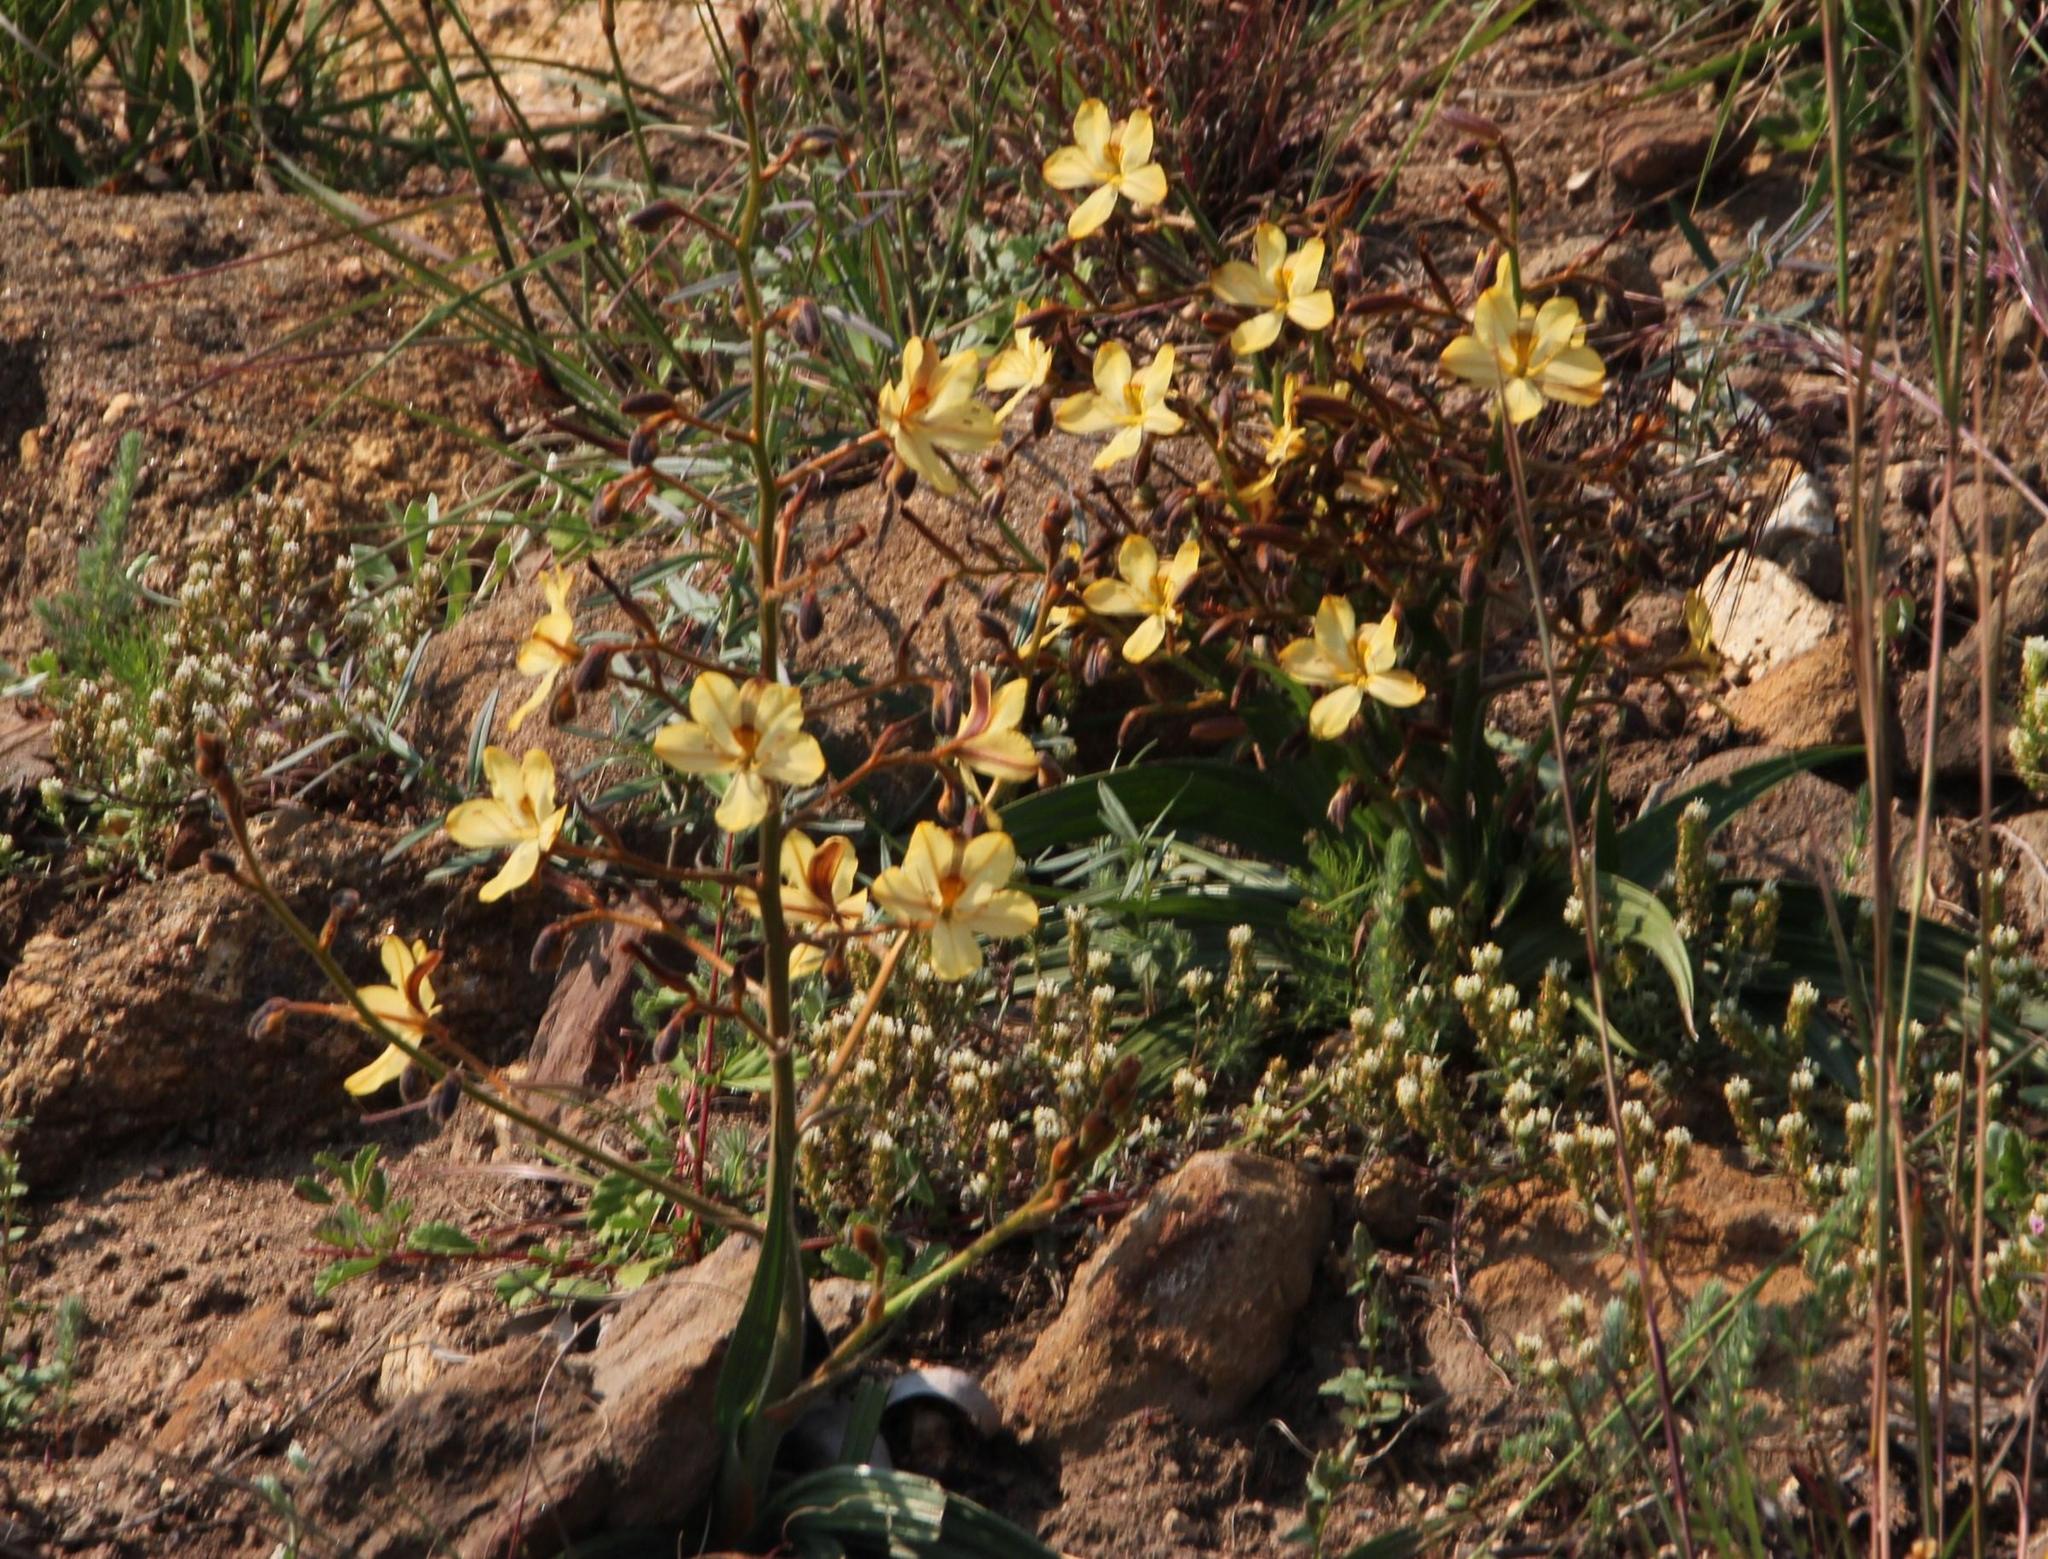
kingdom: Plantae
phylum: Tracheophyta
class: Liliopsida
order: Commelinales
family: Haemodoraceae
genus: Wachendorfia
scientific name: Wachendorfia paniculata
